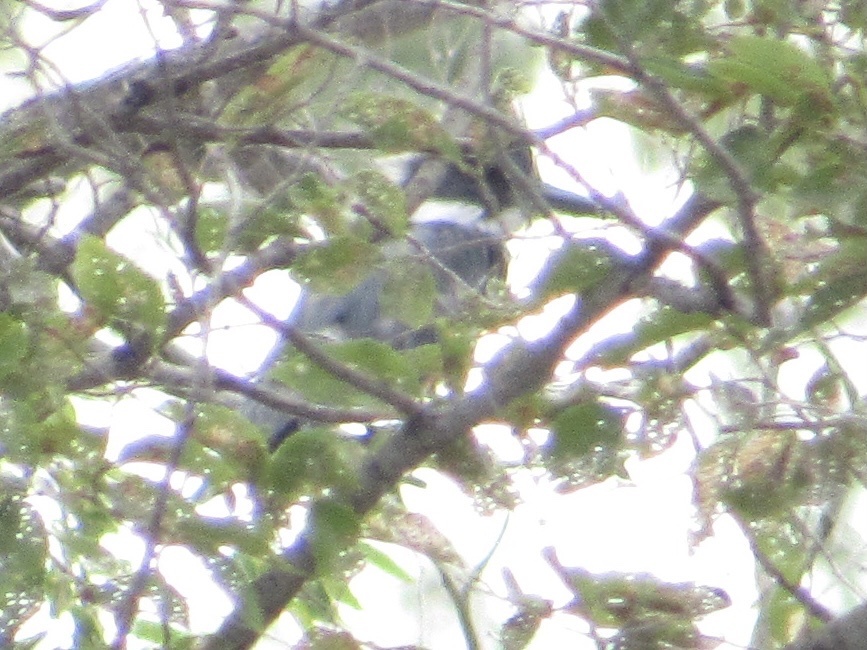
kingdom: Animalia
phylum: Chordata
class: Aves
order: Coraciiformes
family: Alcedinidae
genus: Megaceryle
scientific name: Megaceryle alcyon
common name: Belted kingfisher
